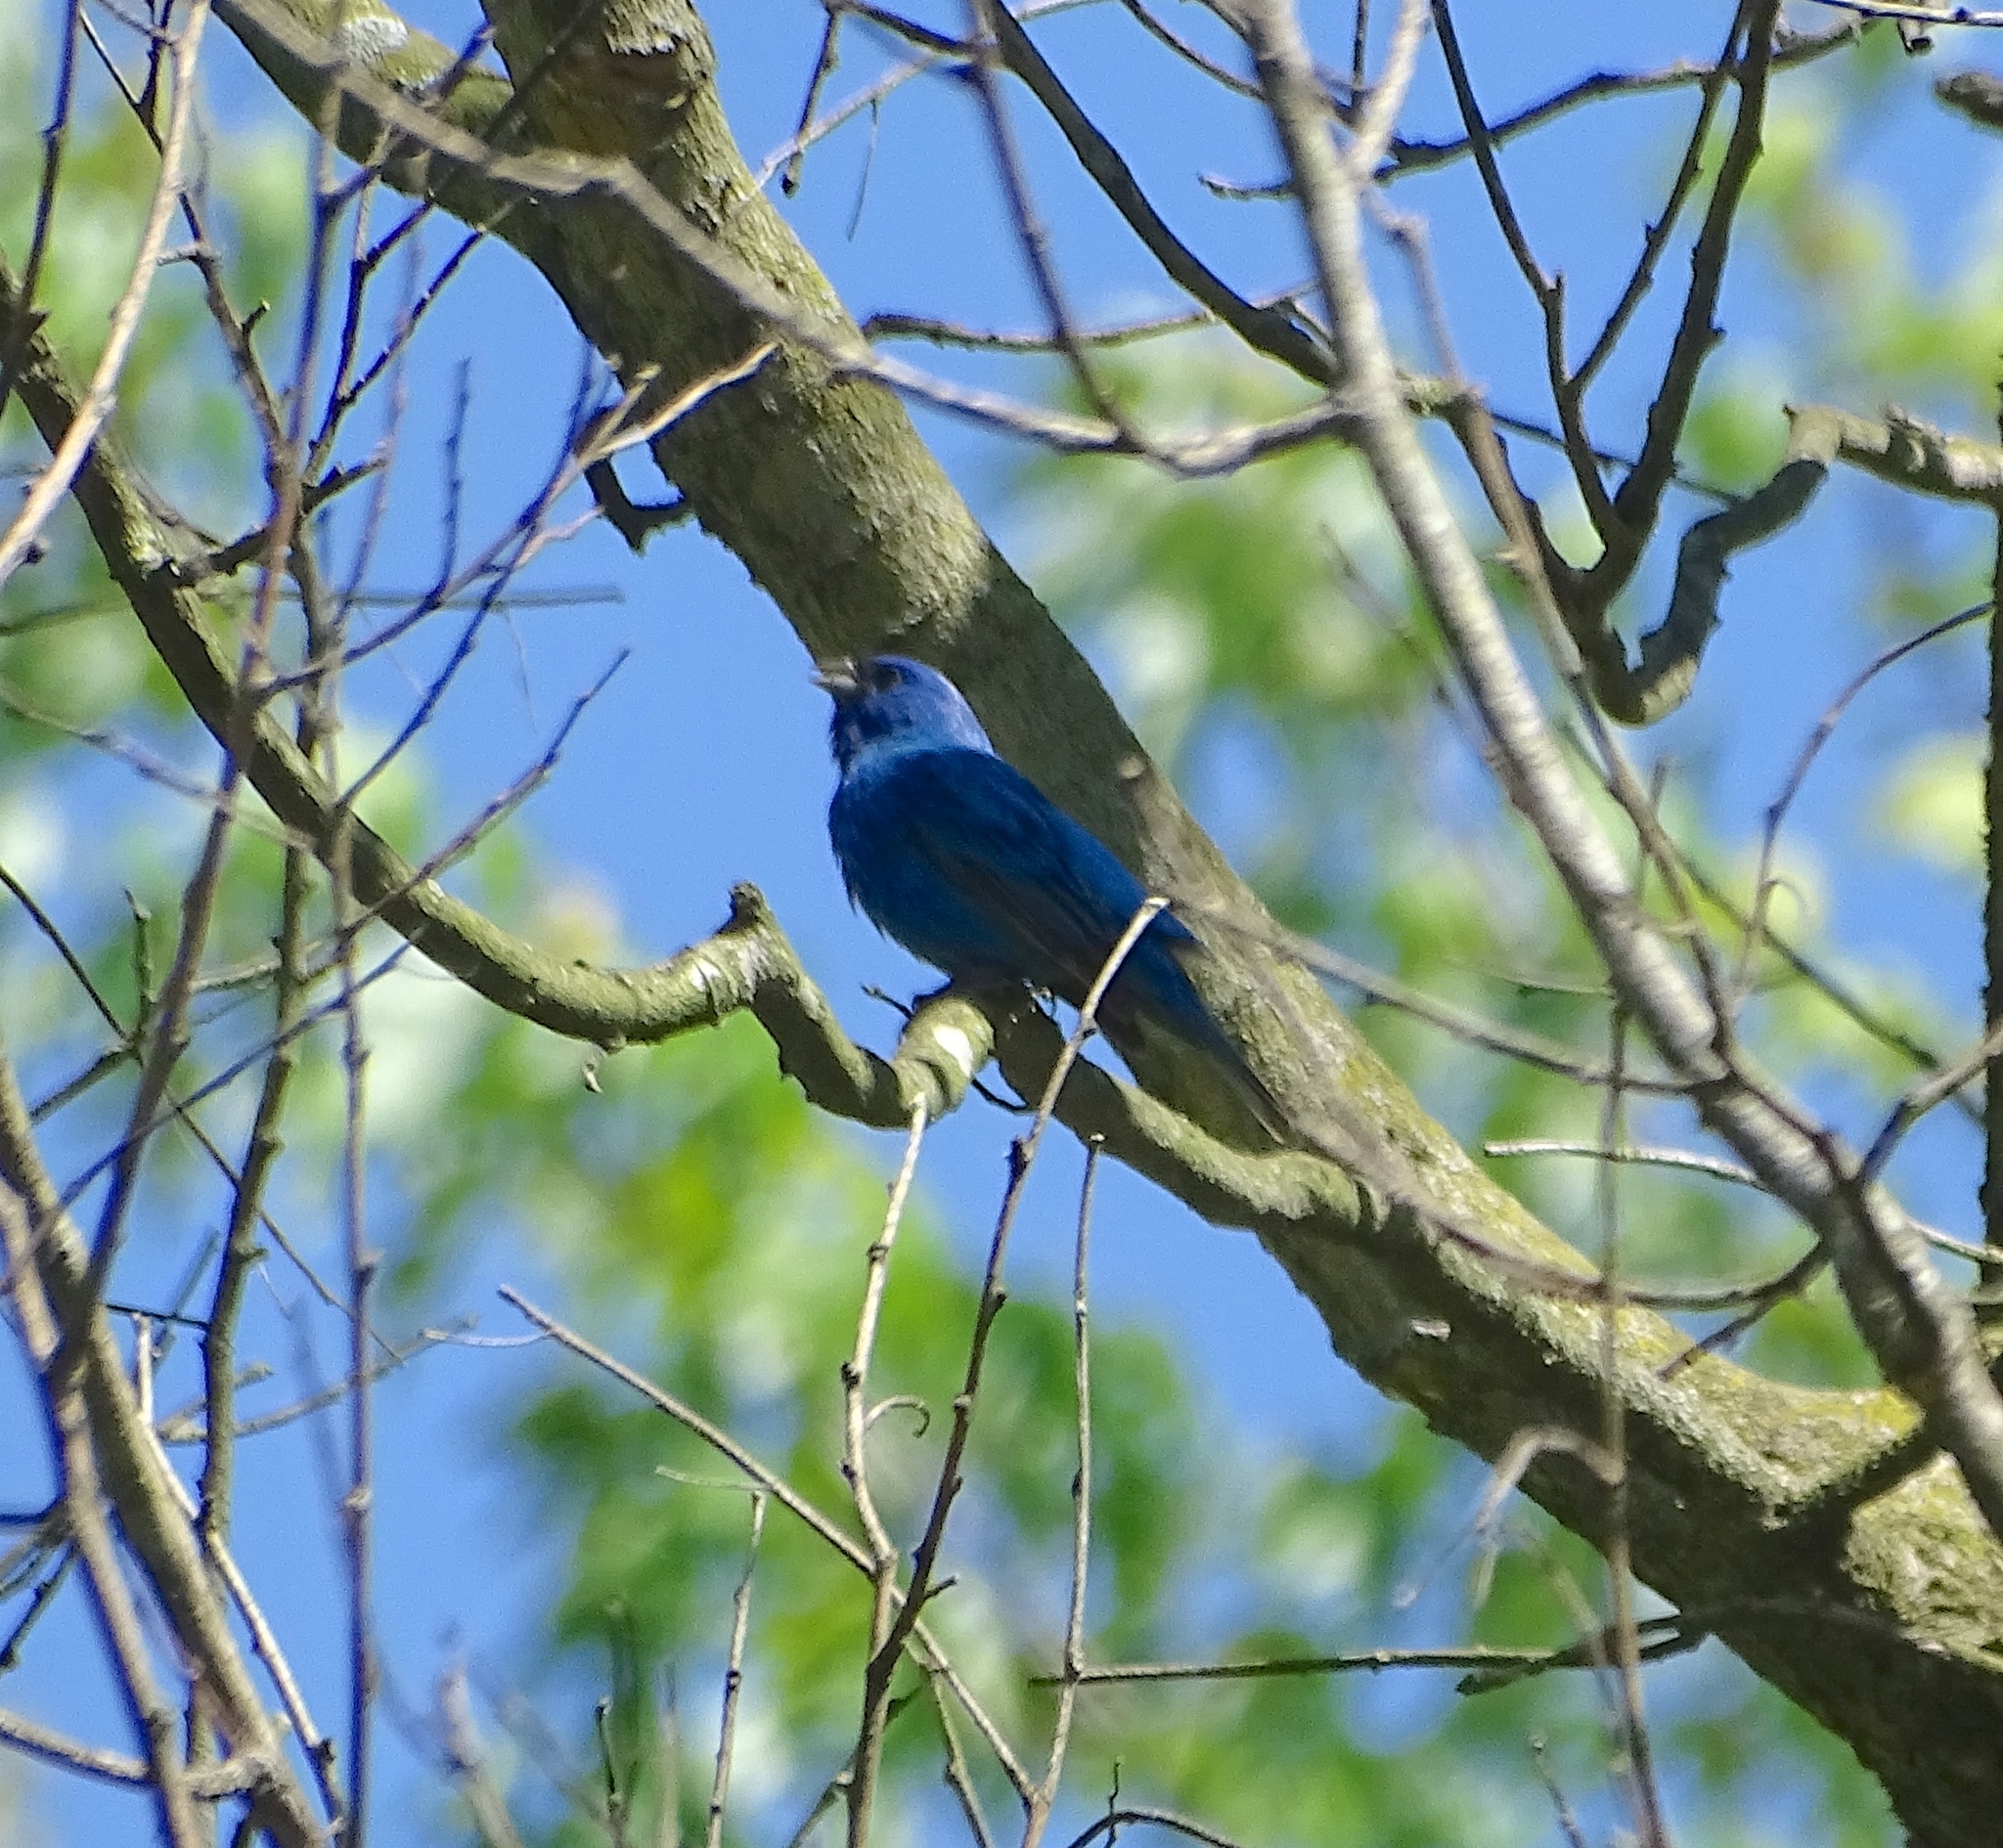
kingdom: Animalia
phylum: Chordata
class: Aves
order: Passeriformes
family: Cardinalidae
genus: Passerina
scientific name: Passerina cyanea
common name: Indigo bunting
